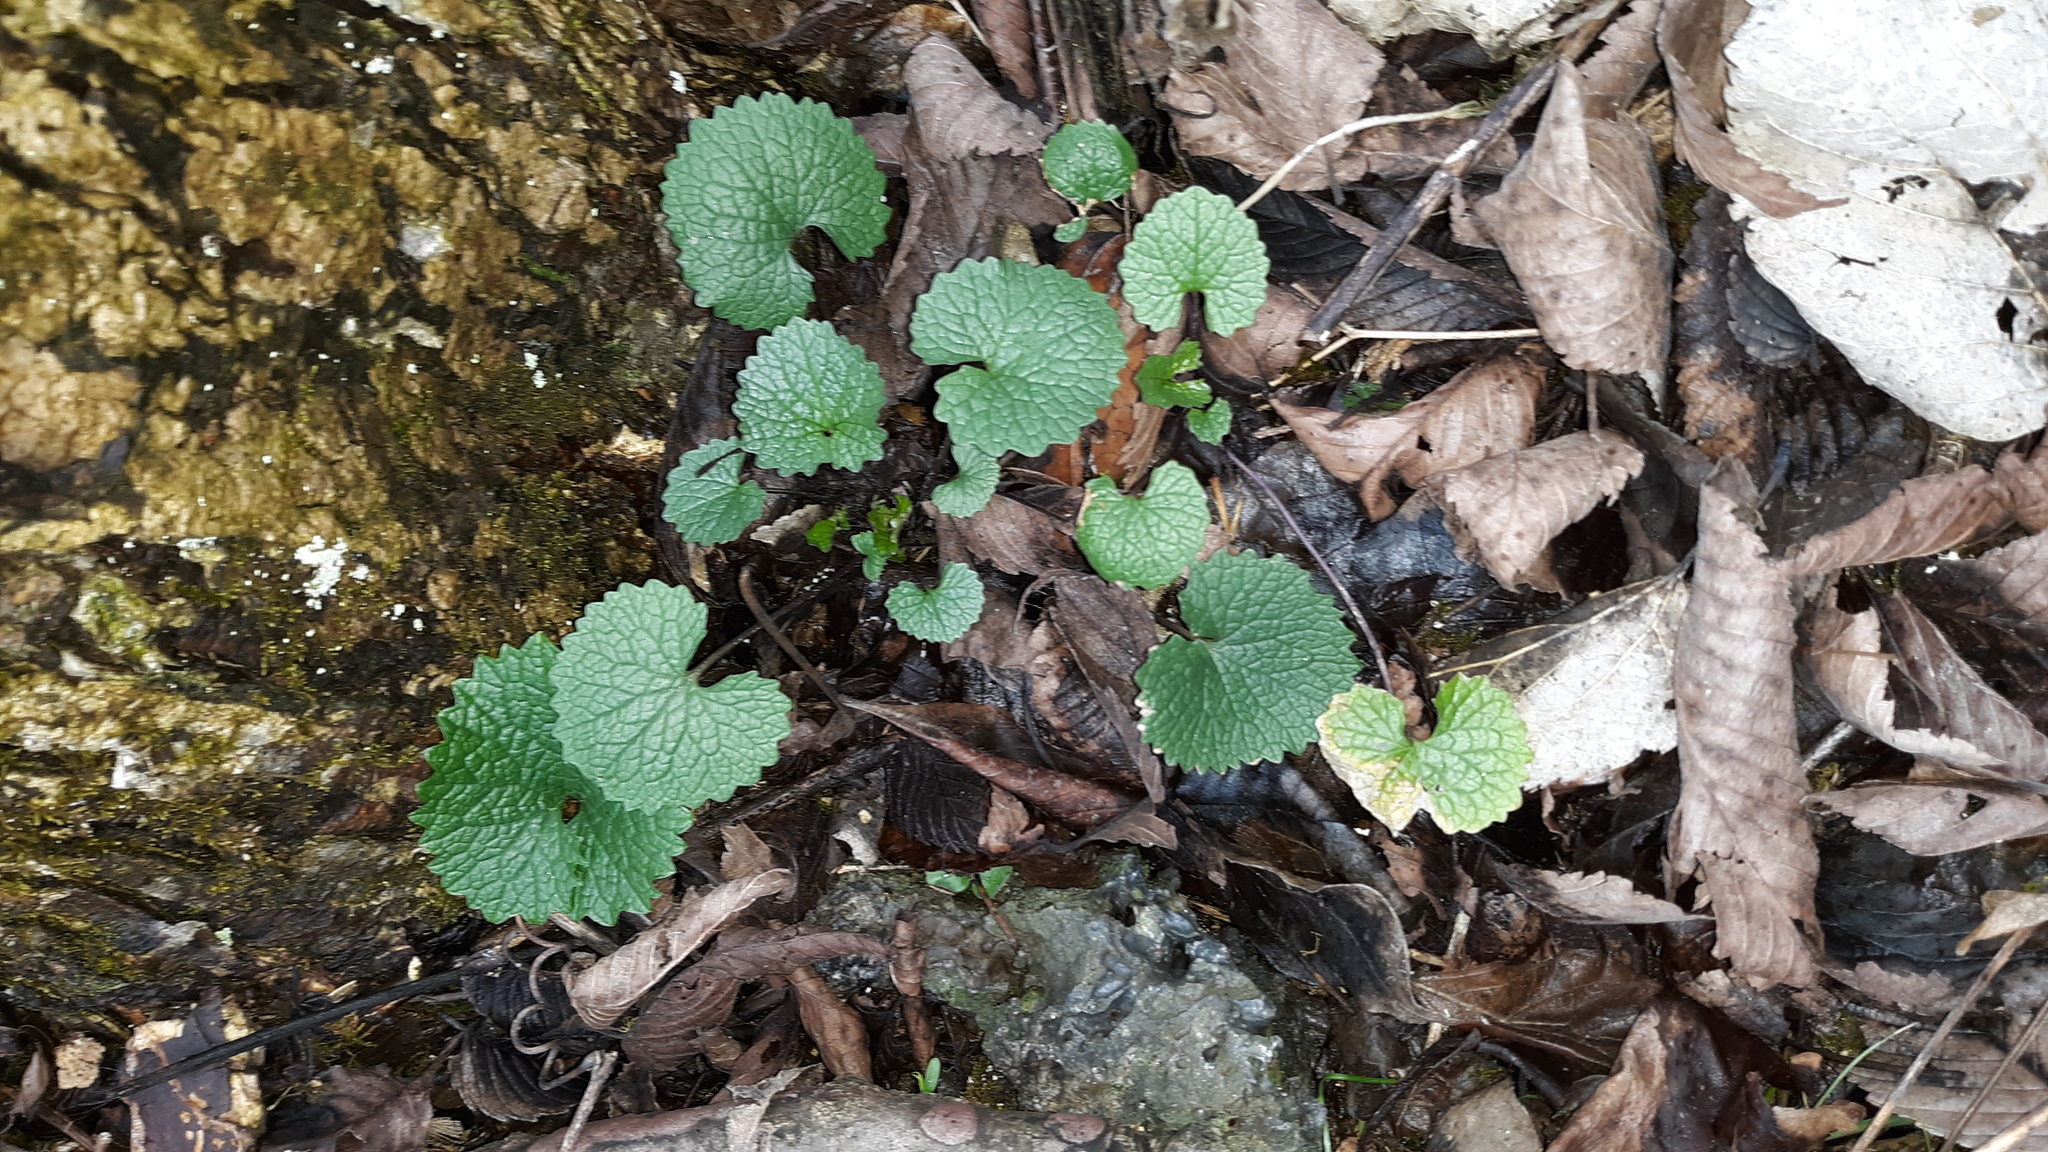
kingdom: Plantae
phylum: Tracheophyta
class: Magnoliopsida
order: Brassicales
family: Brassicaceae
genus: Alliaria
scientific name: Alliaria petiolata
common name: Garlic mustard
